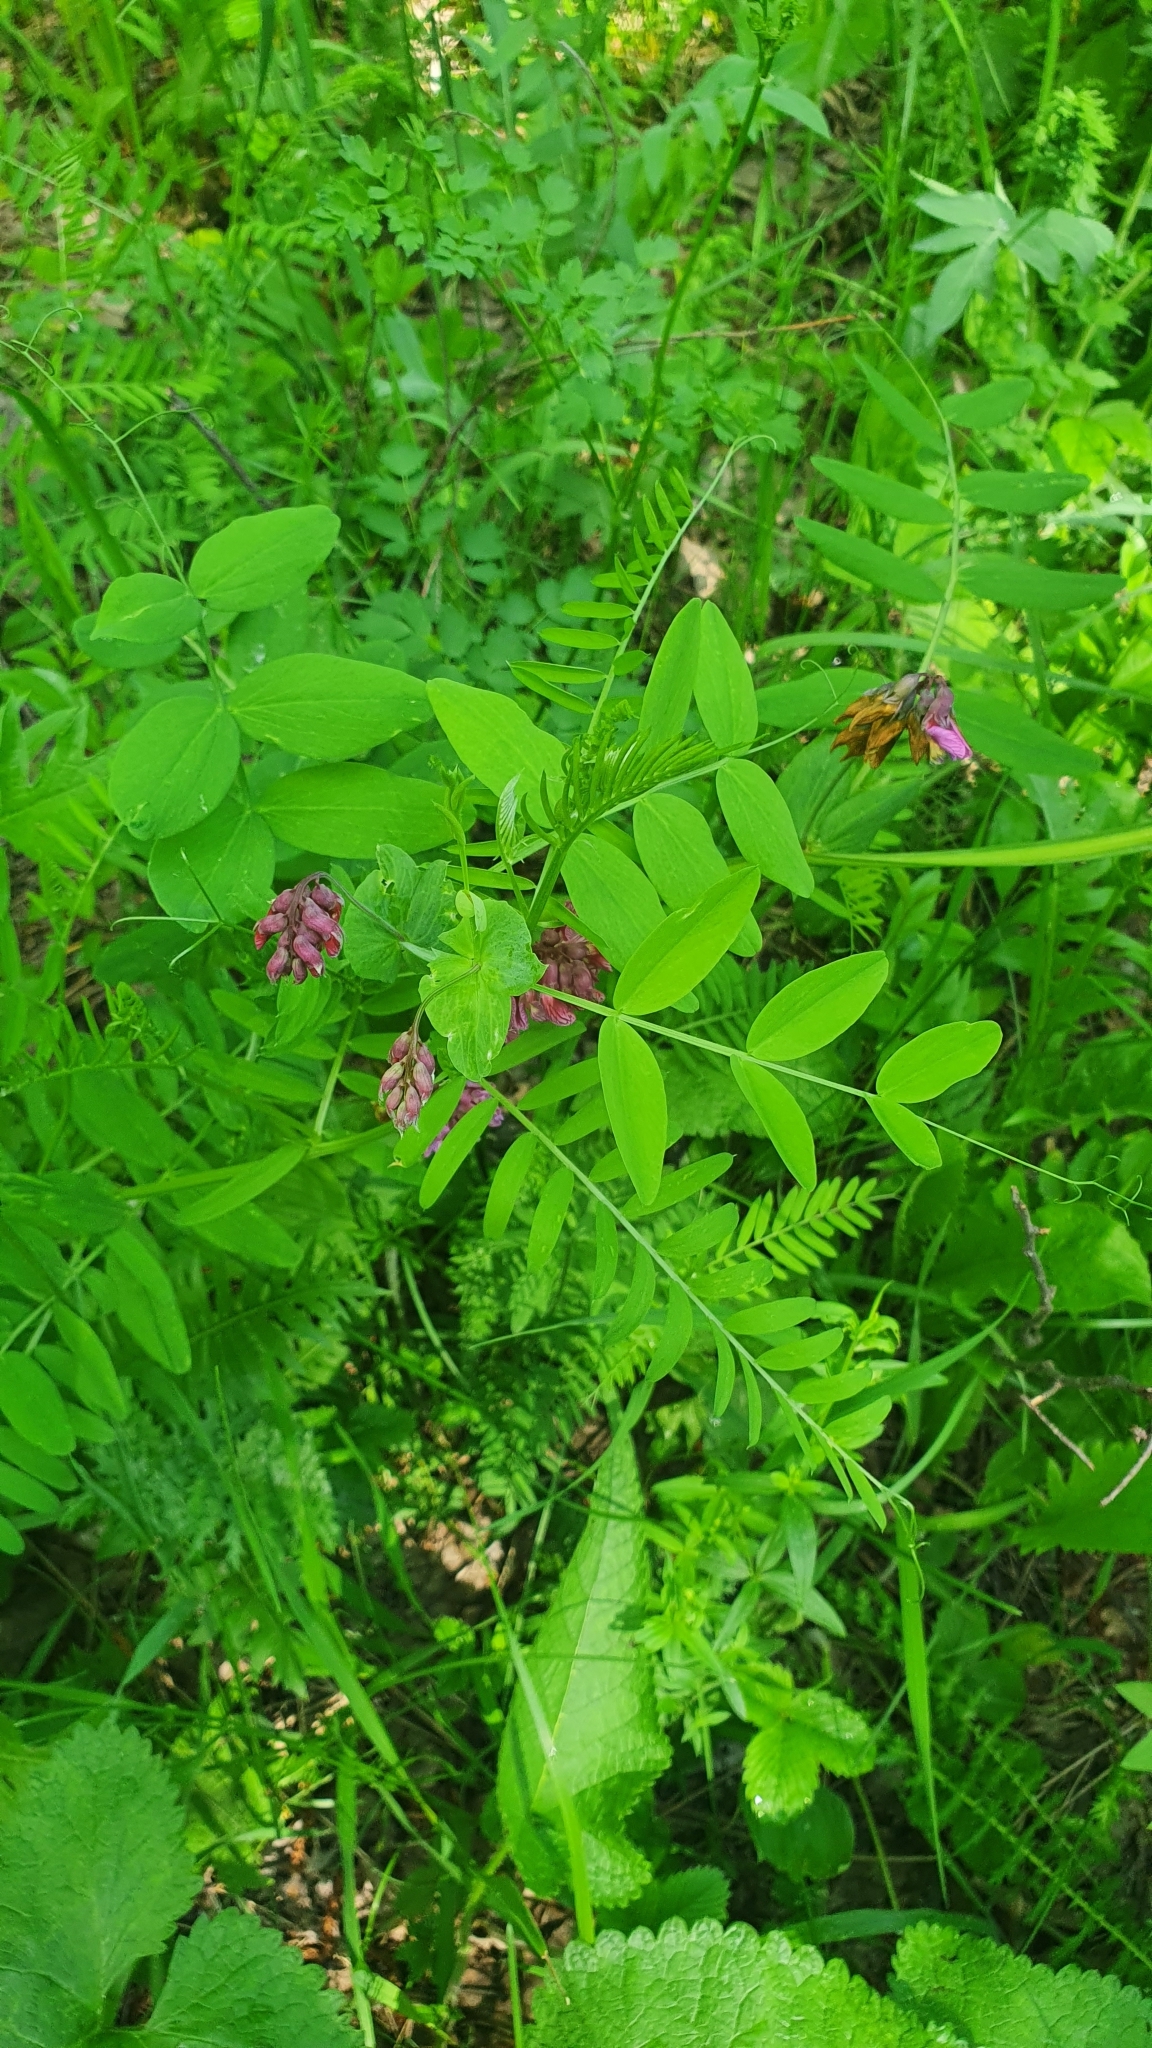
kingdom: Plantae
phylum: Tracheophyta
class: Magnoliopsida
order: Fabales
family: Fabaceae
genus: Lathyrus
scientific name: Lathyrus pisiformis
